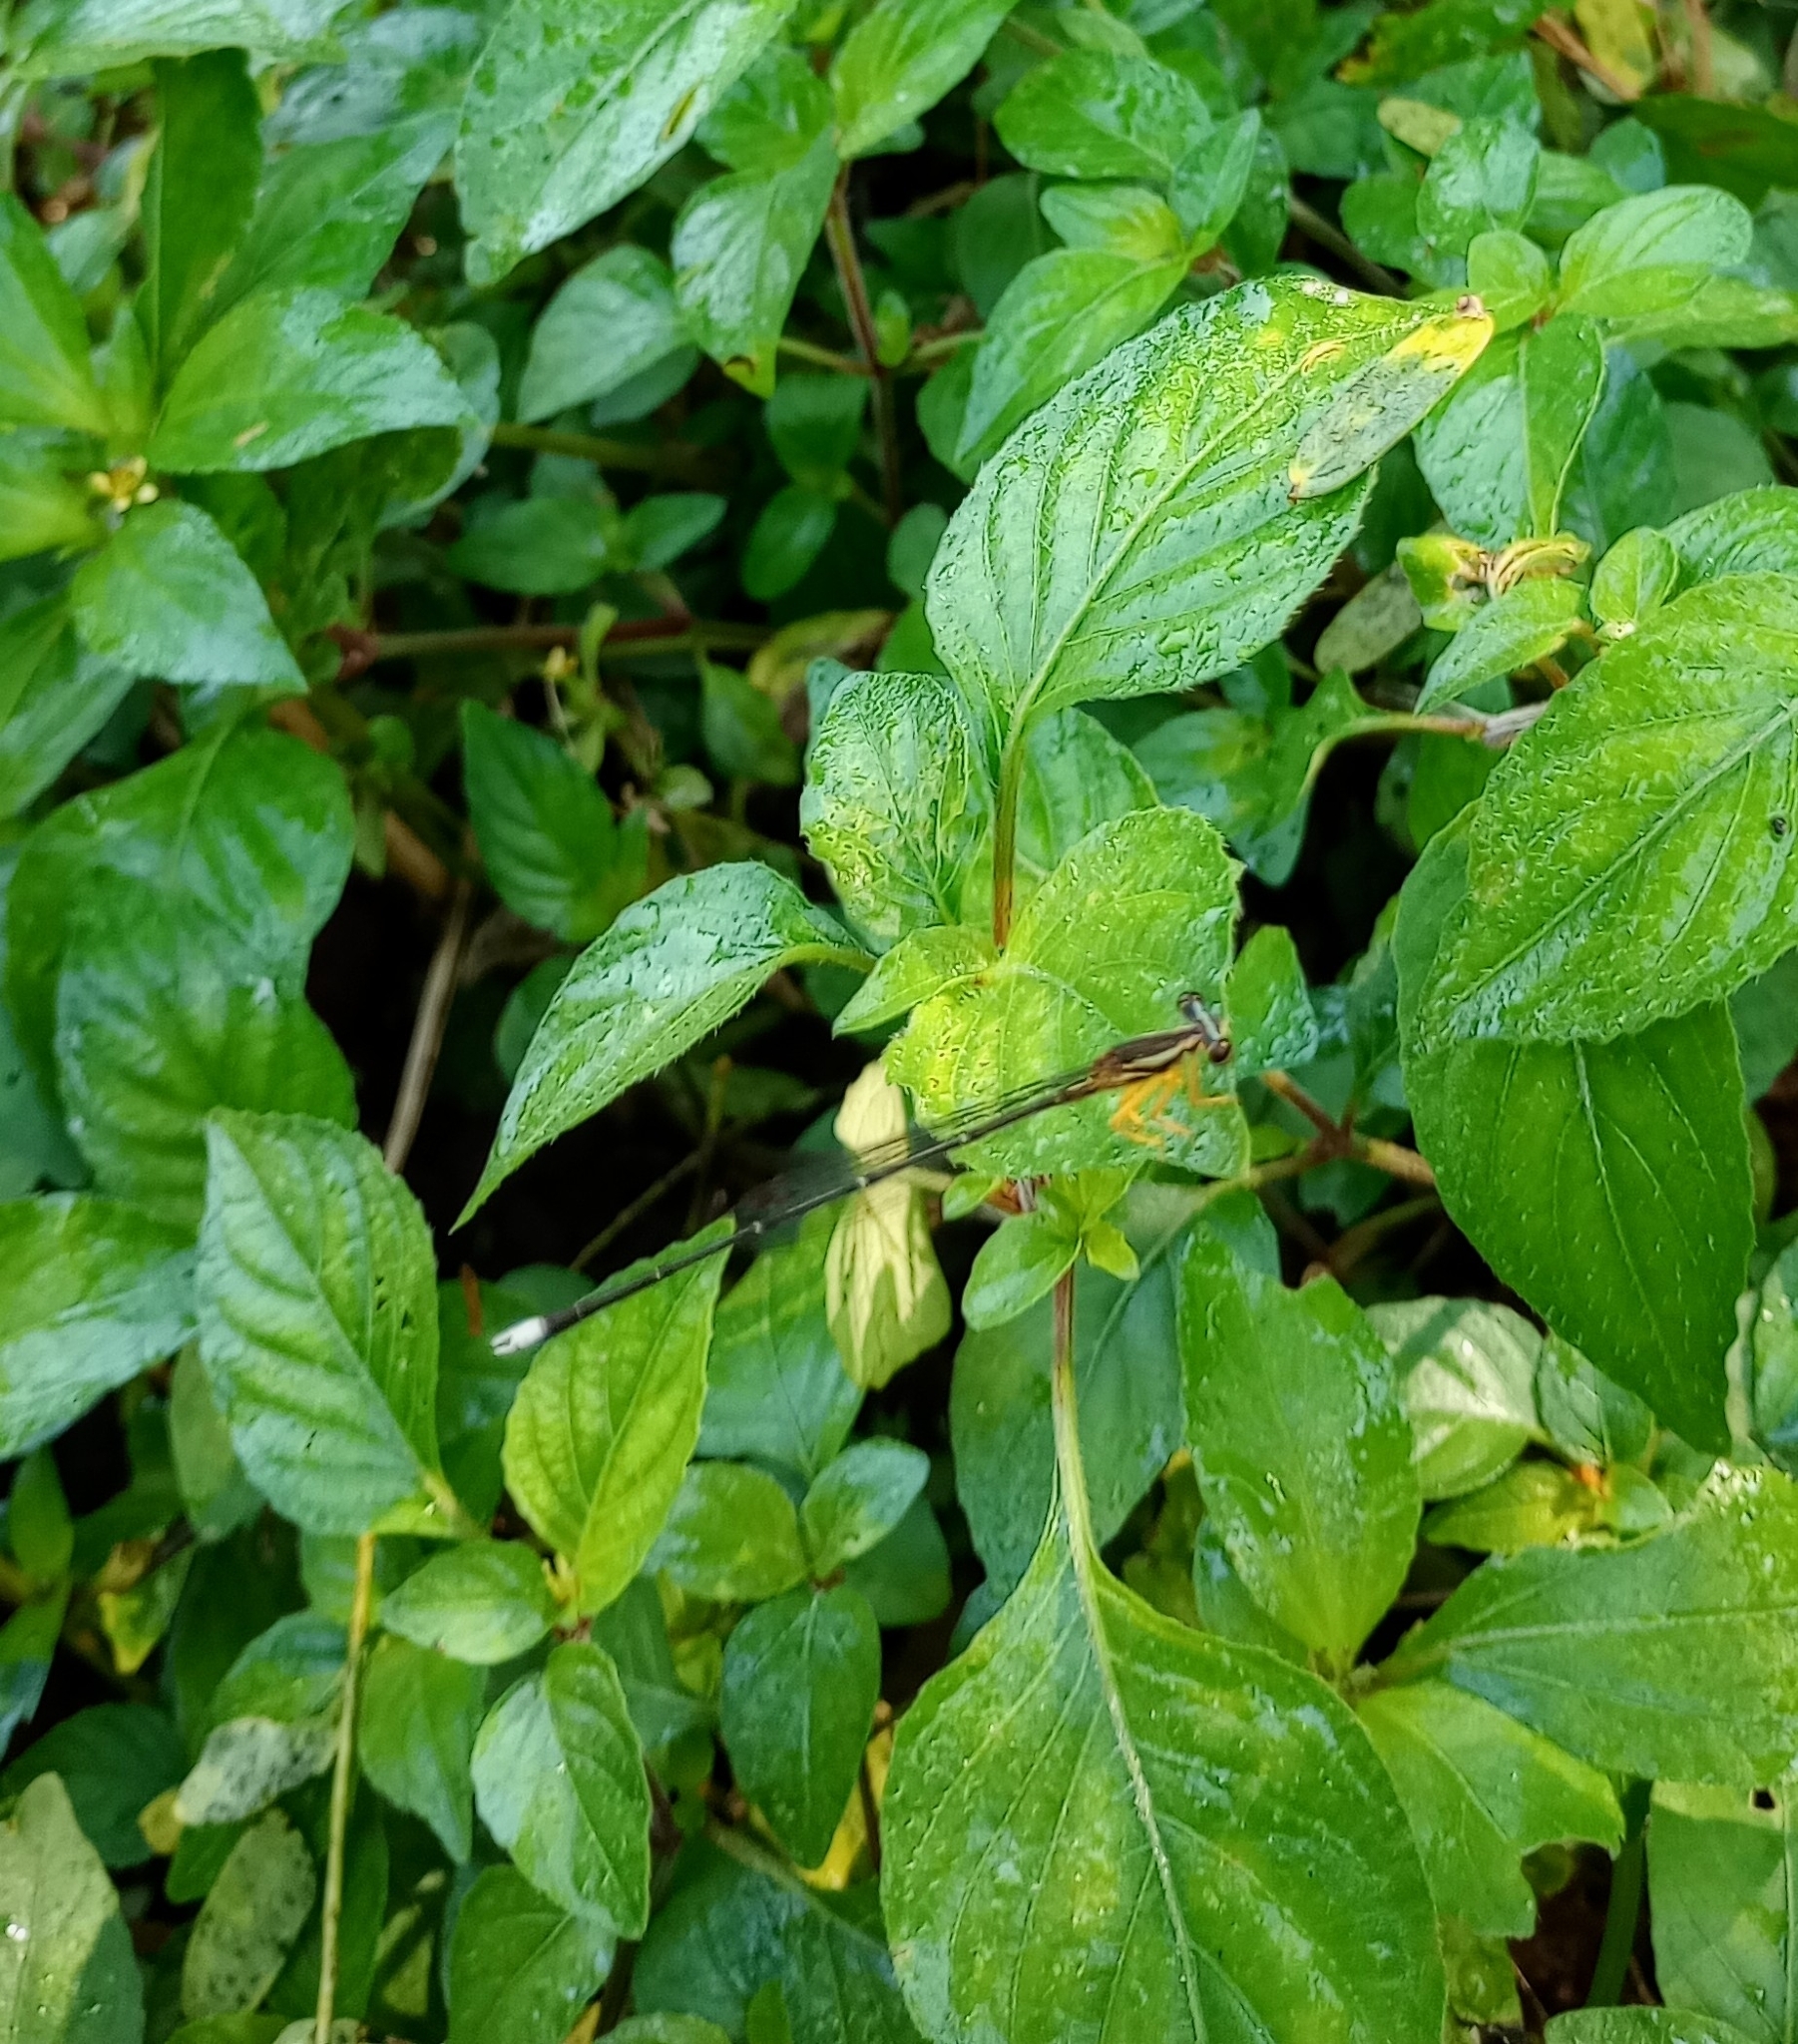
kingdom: Animalia
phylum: Arthropoda
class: Insecta
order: Odonata
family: Platycnemididae
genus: Copera
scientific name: Copera marginipes
